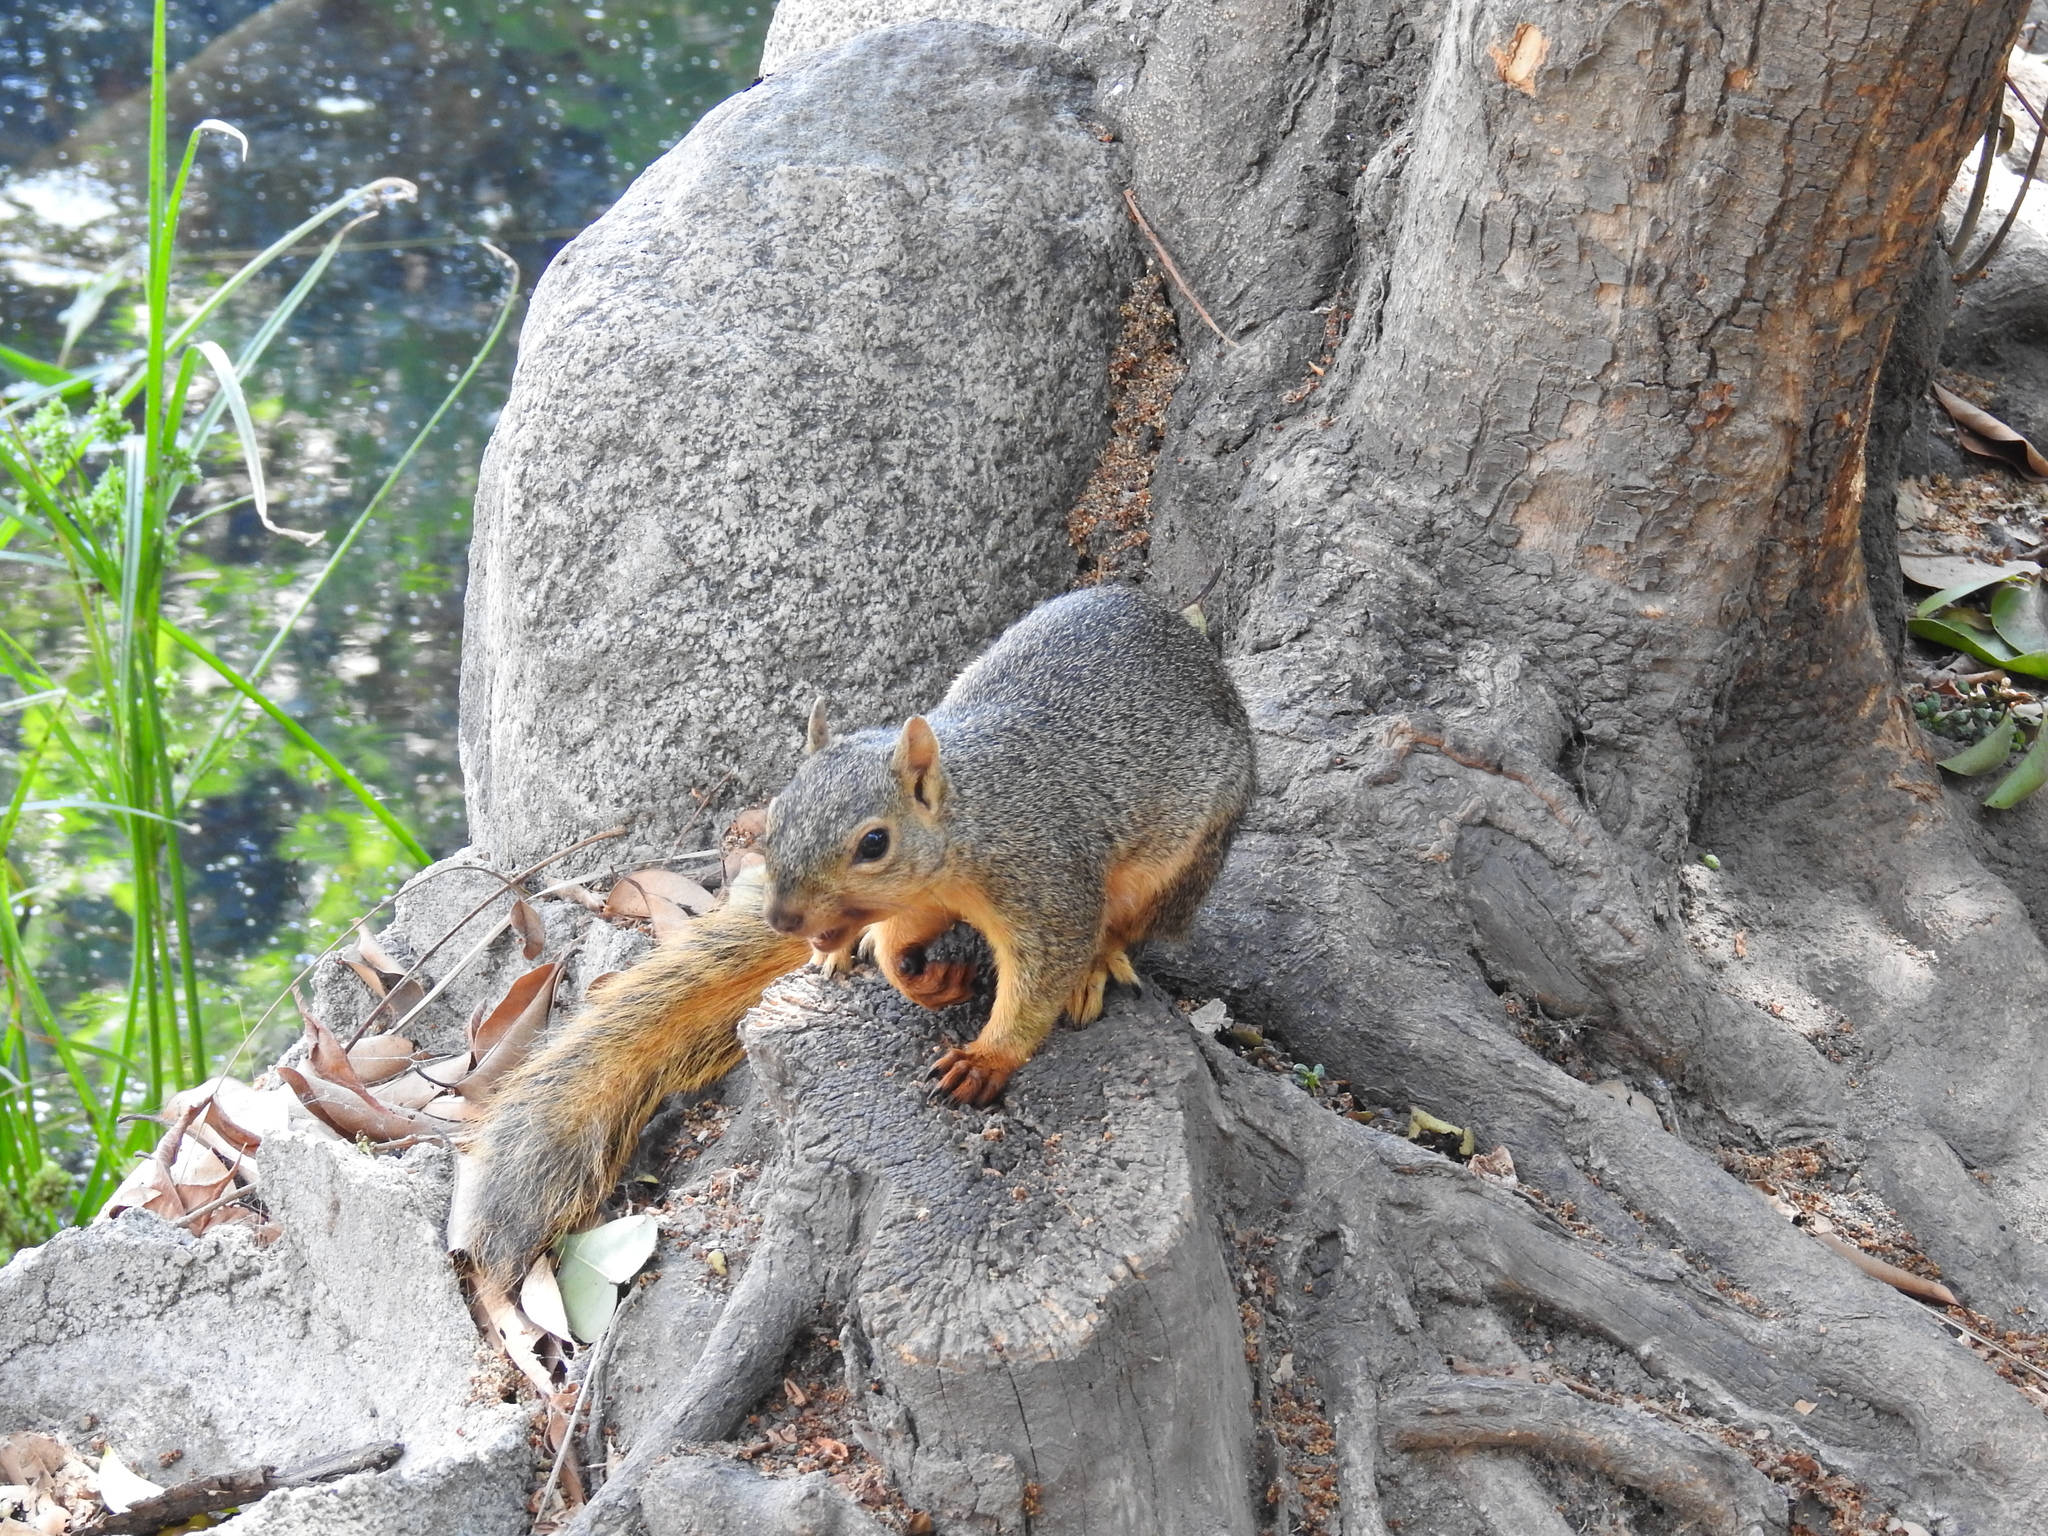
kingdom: Animalia
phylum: Chordata
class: Mammalia
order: Rodentia
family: Sciuridae
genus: Sciurus
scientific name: Sciurus niger
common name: Fox squirrel
